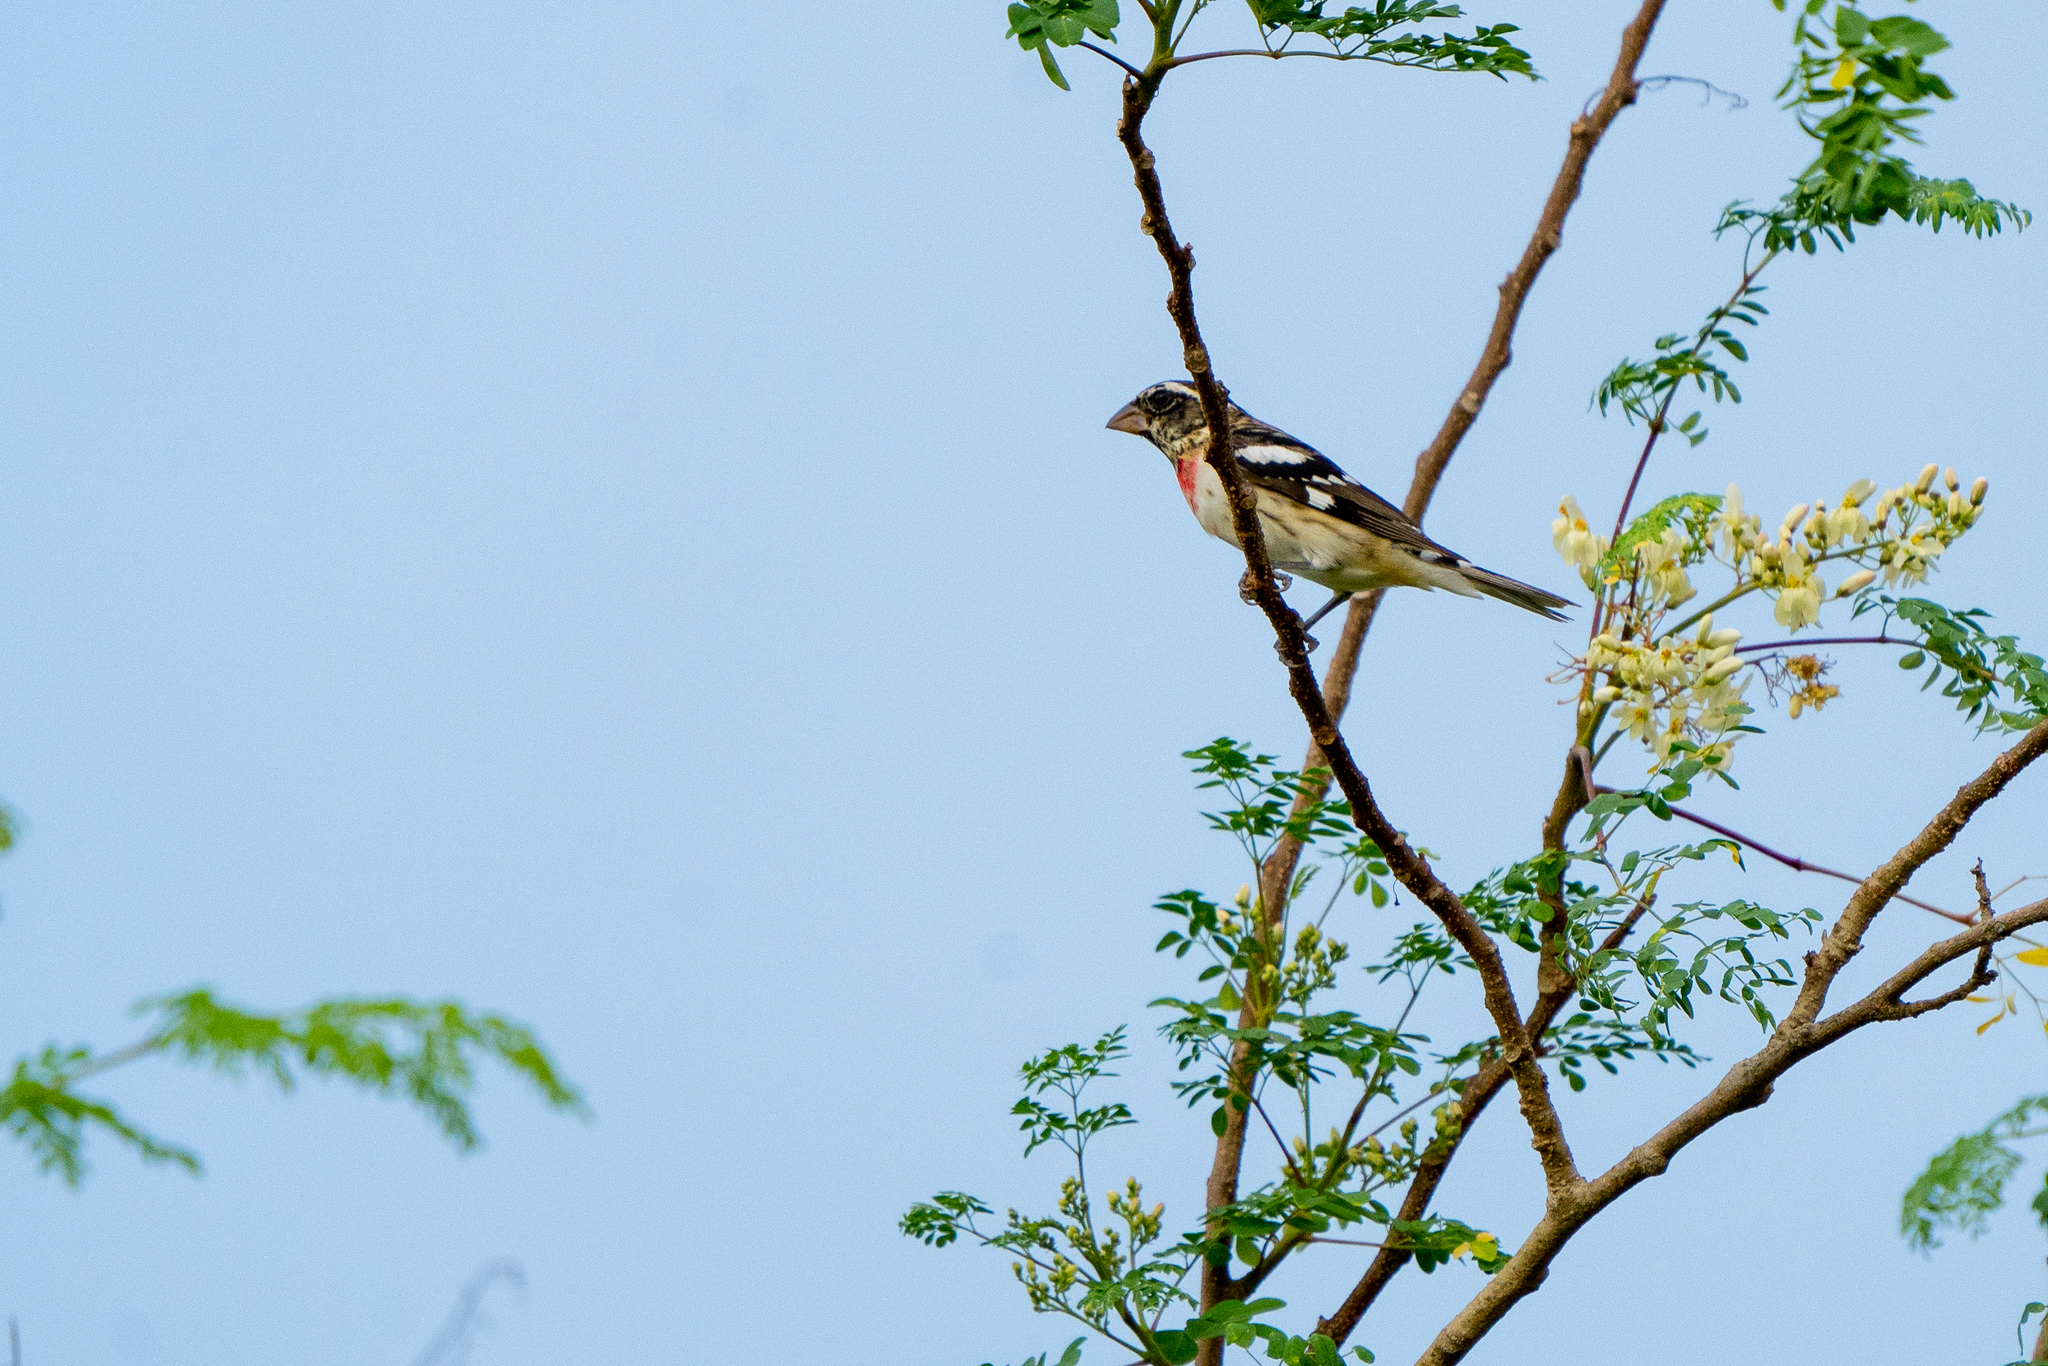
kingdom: Animalia
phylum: Chordata
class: Aves
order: Passeriformes
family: Cardinalidae
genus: Pheucticus
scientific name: Pheucticus ludovicianus
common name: Rose-breasted grosbeak
